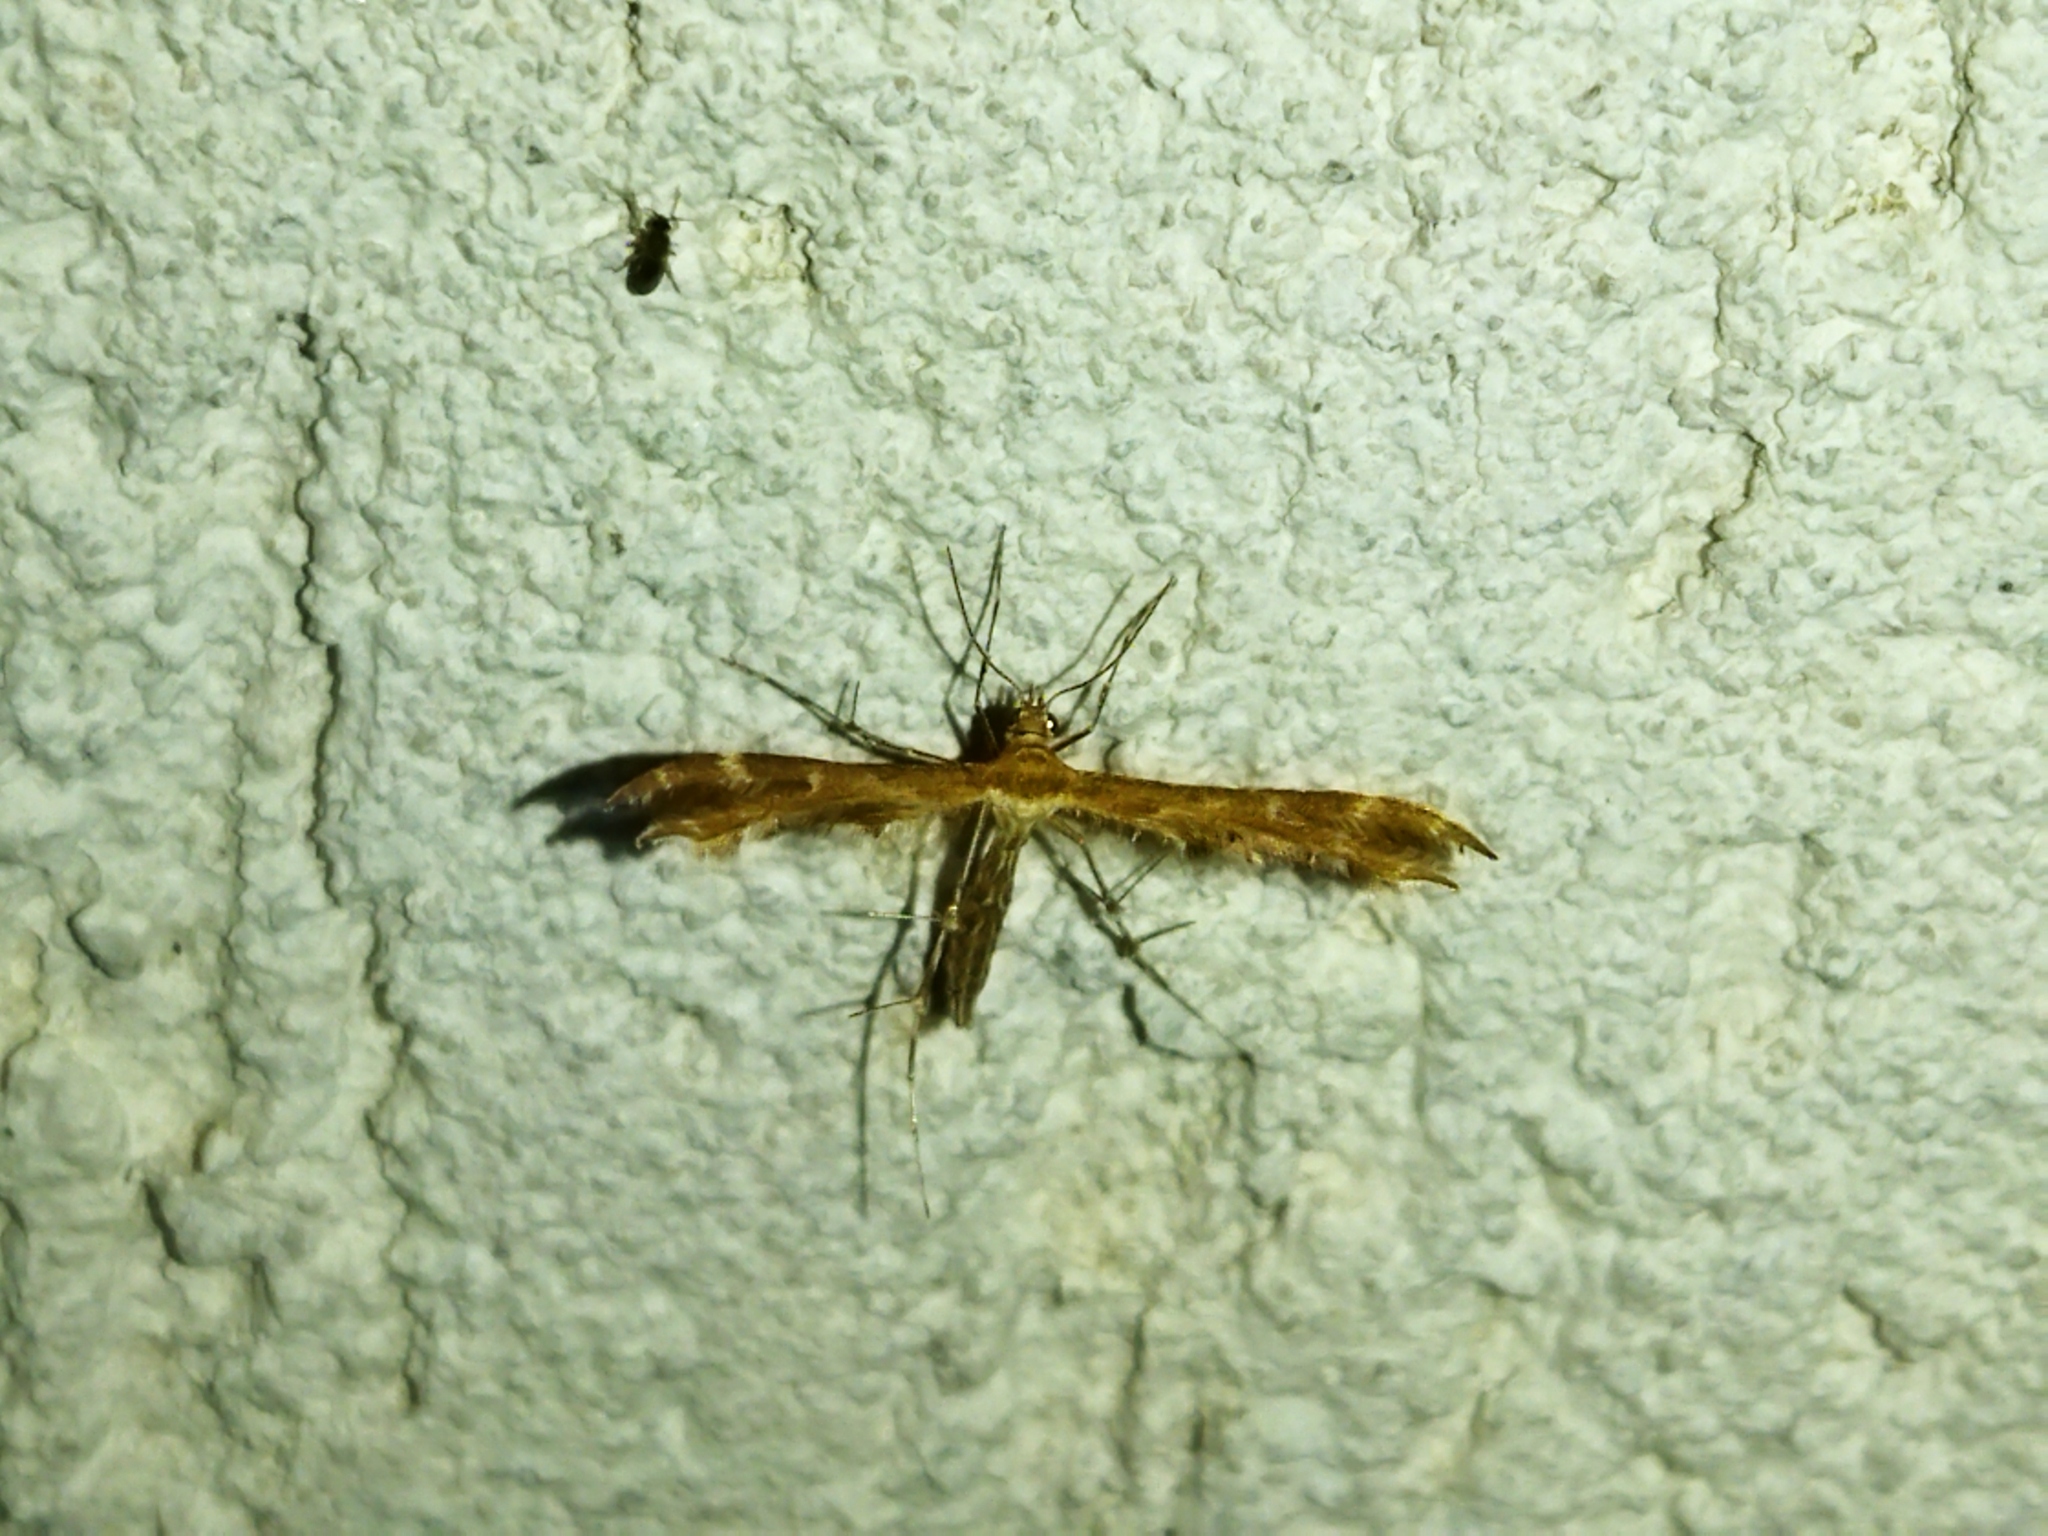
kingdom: Animalia
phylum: Arthropoda
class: Insecta
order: Lepidoptera
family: Pterophoridae
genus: Crombrugghia
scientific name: Crombrugghia
